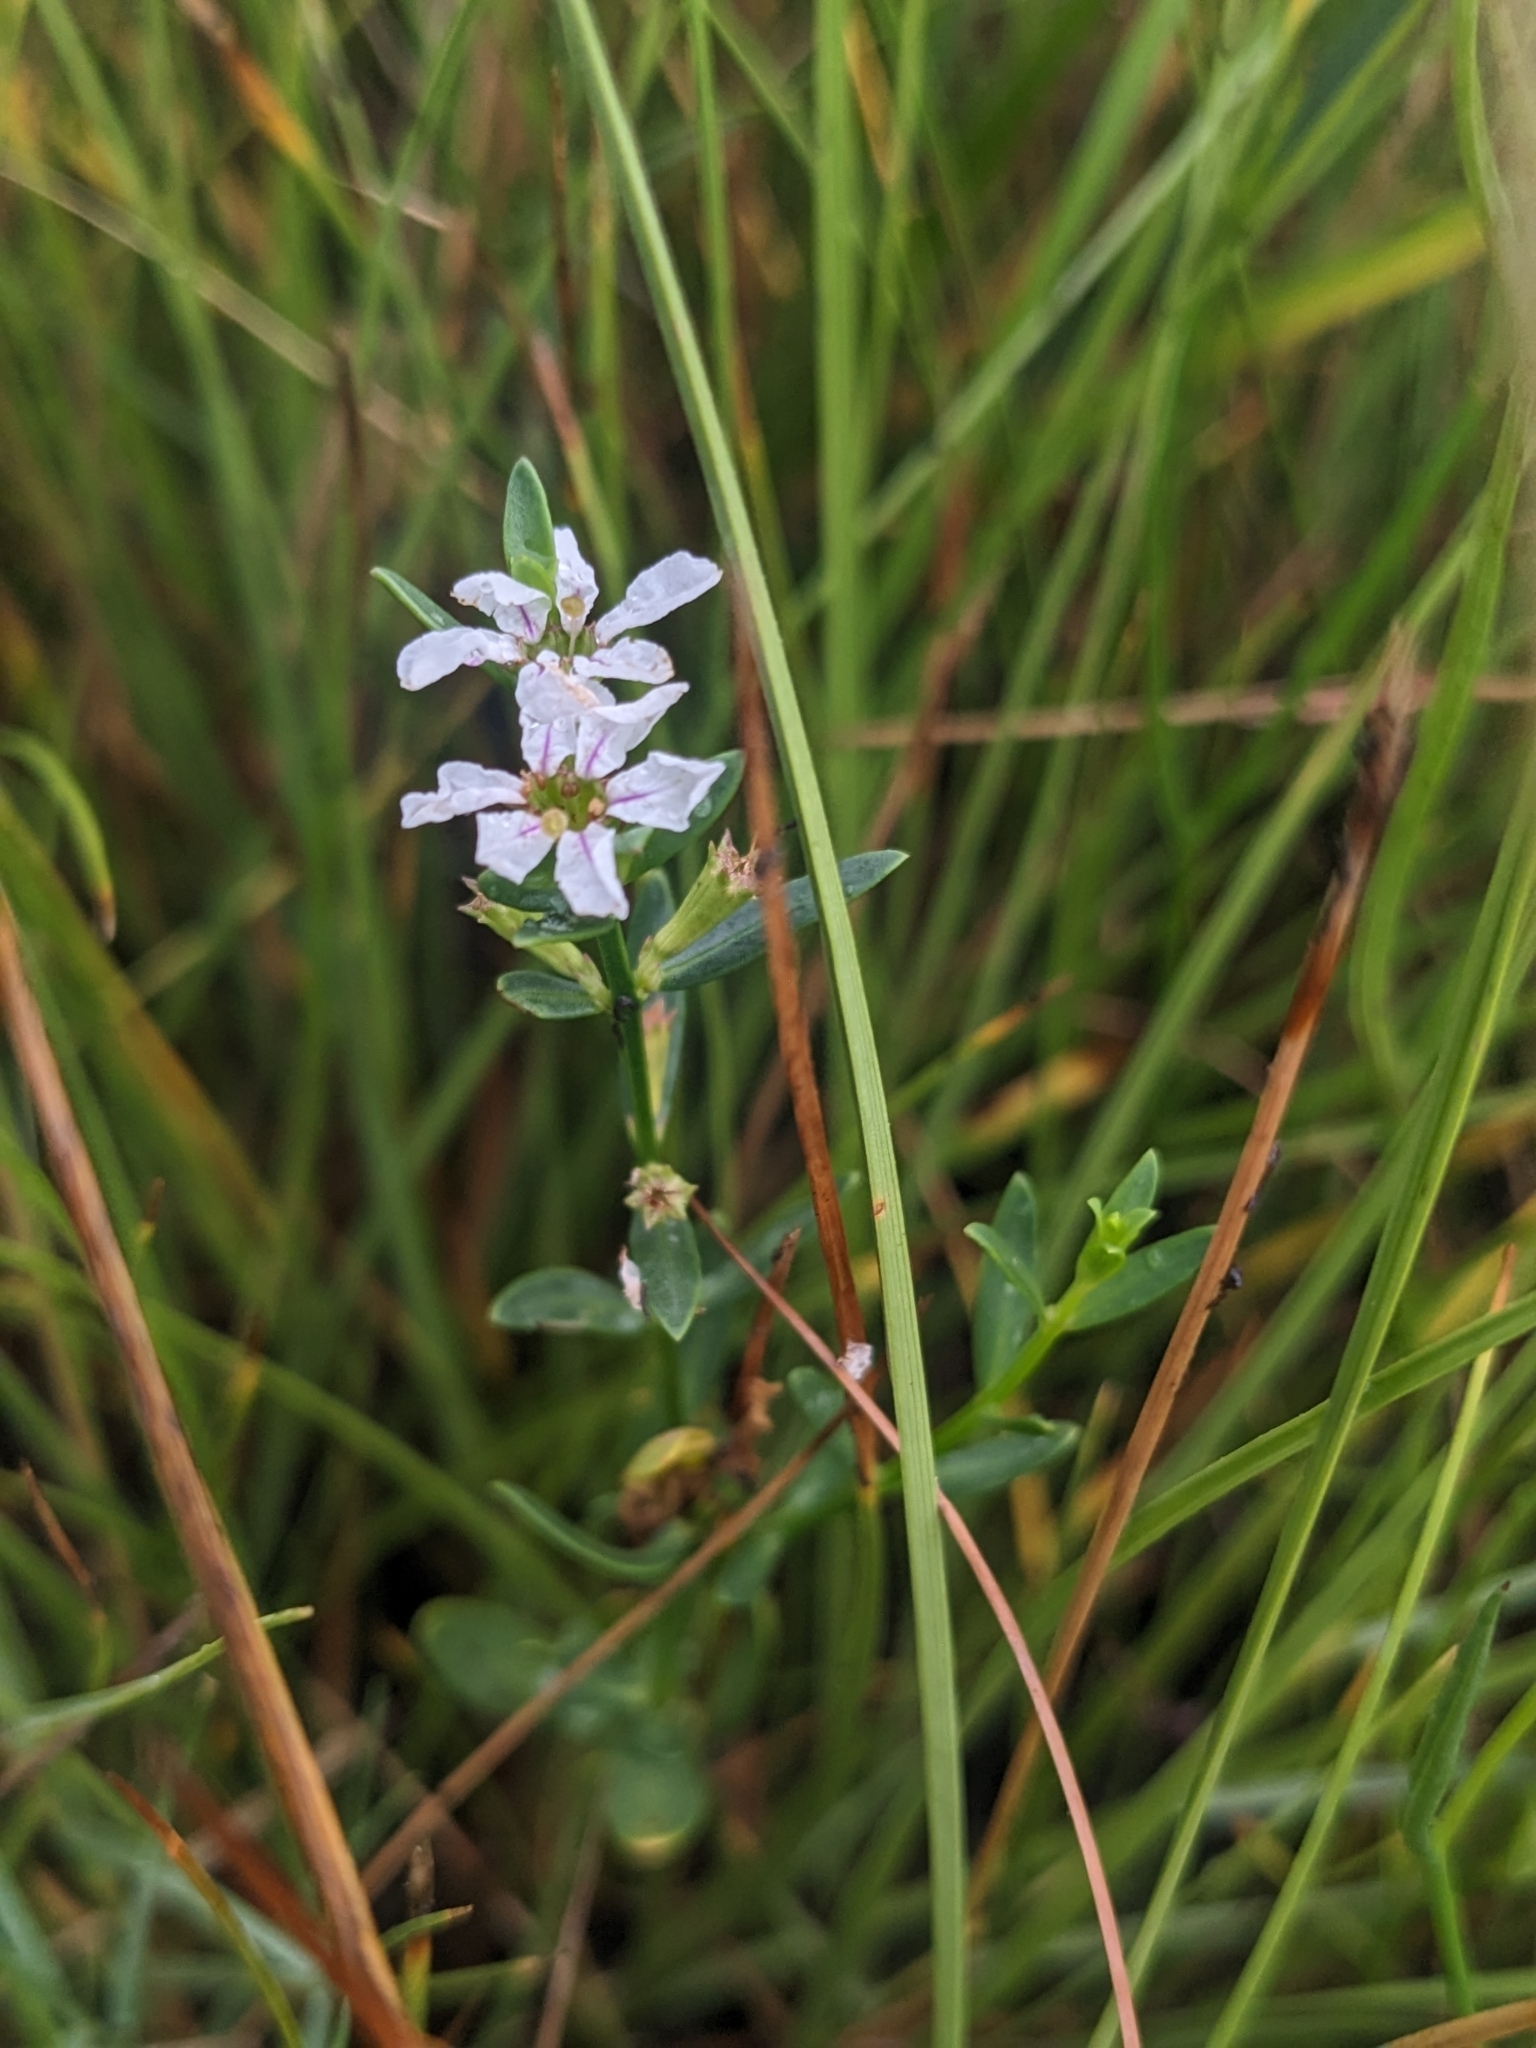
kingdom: Plantae
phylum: Tracheophyta
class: Magnoliopsida
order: Myrtales
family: Lythraceae
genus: Lythrum
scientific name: Lythrum lineare
